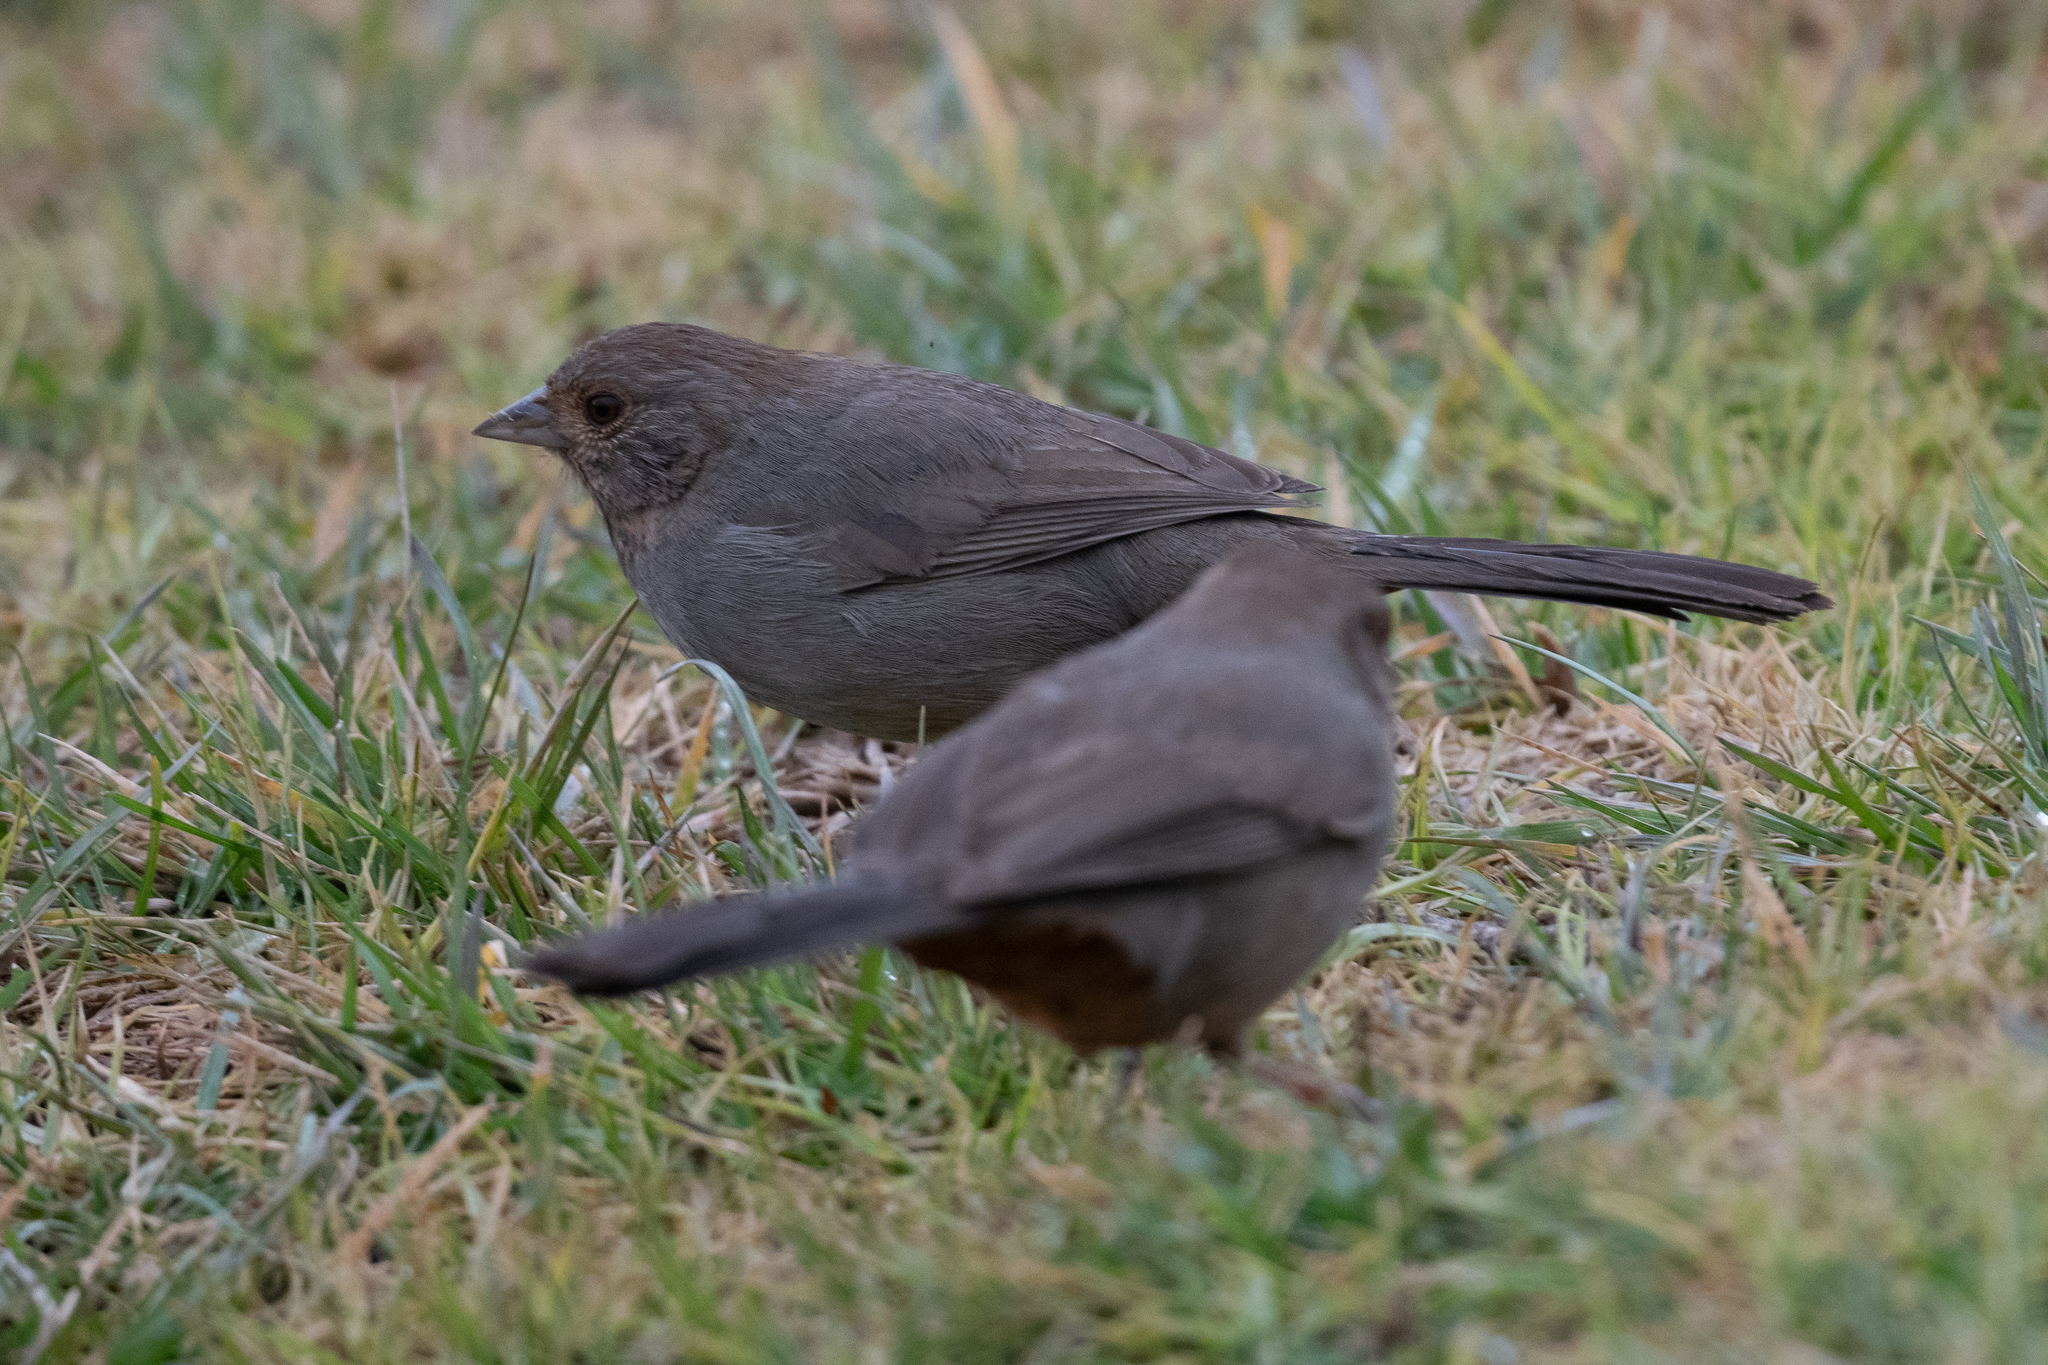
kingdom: Animalia
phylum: Chordata
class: Aves
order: Passeriformes
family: Passerellidae
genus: Melozone
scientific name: Melozone crissalis
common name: California towhee
